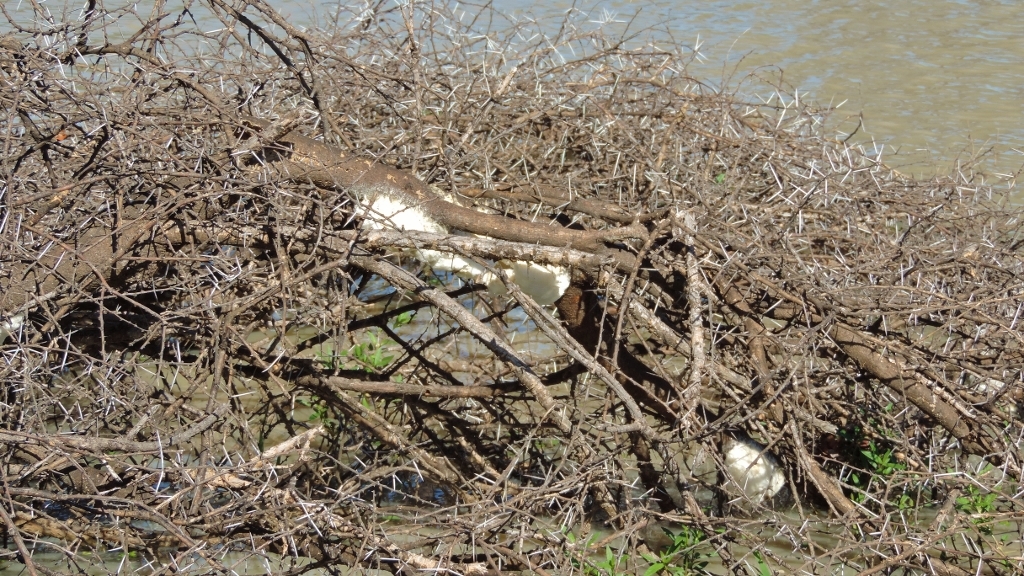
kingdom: Animalia
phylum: Chordata
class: Amphibia
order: Anura
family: Rhacophoridae
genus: Chiromantis
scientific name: Chiromantis xerampelina
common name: African gray treefrog
